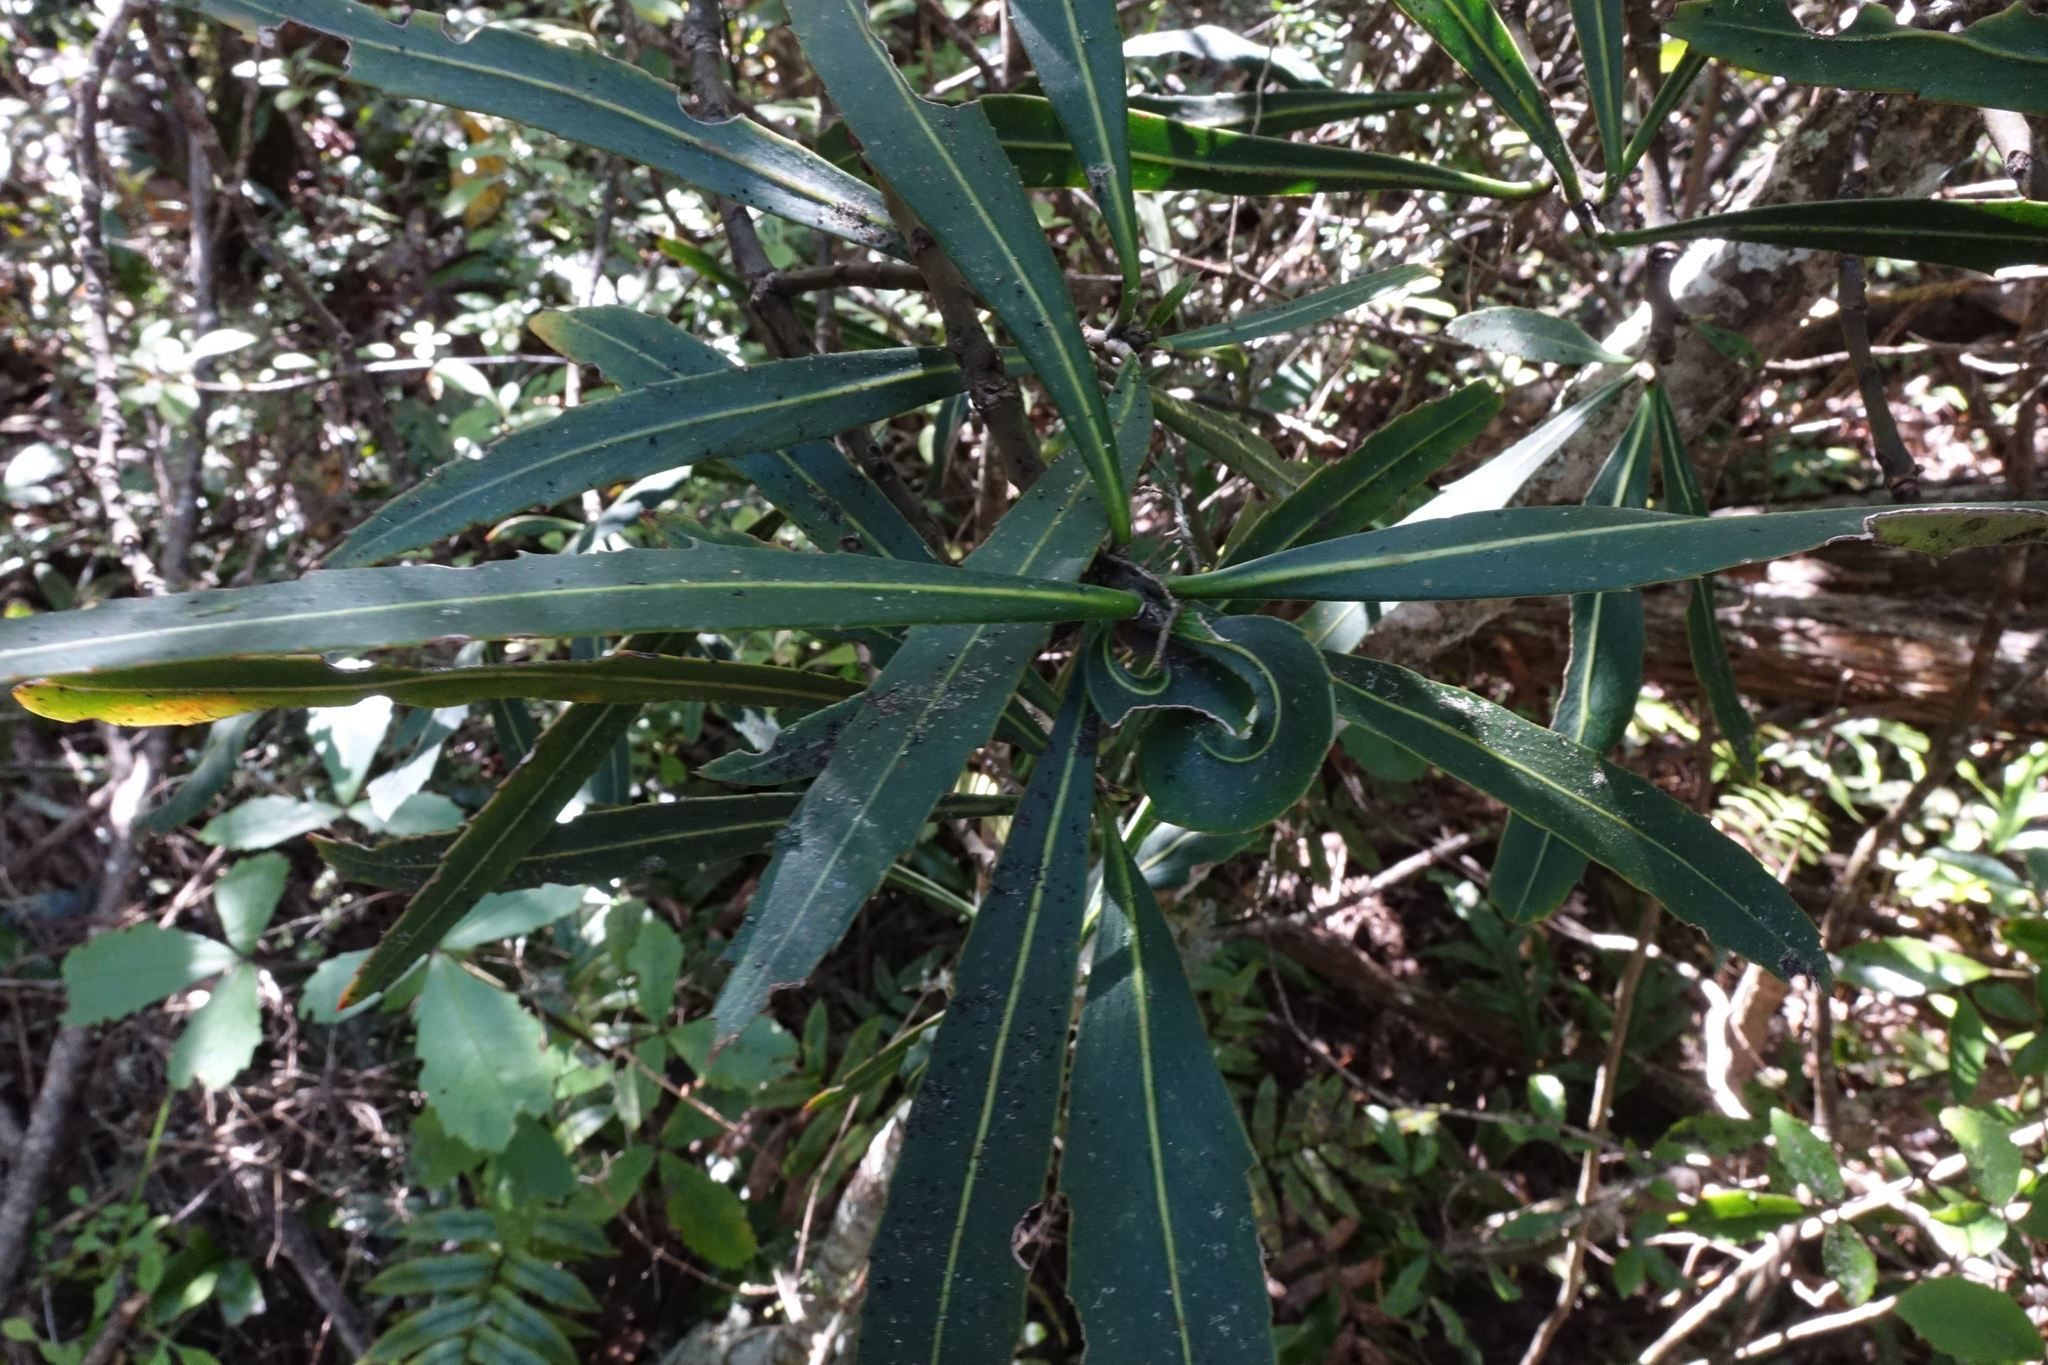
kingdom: Plantae
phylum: Tracheophyta
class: Magnoliopsida
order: Apiales
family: Araliaceae
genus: Pseudopanax
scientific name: Pseudopanax crassifolius
